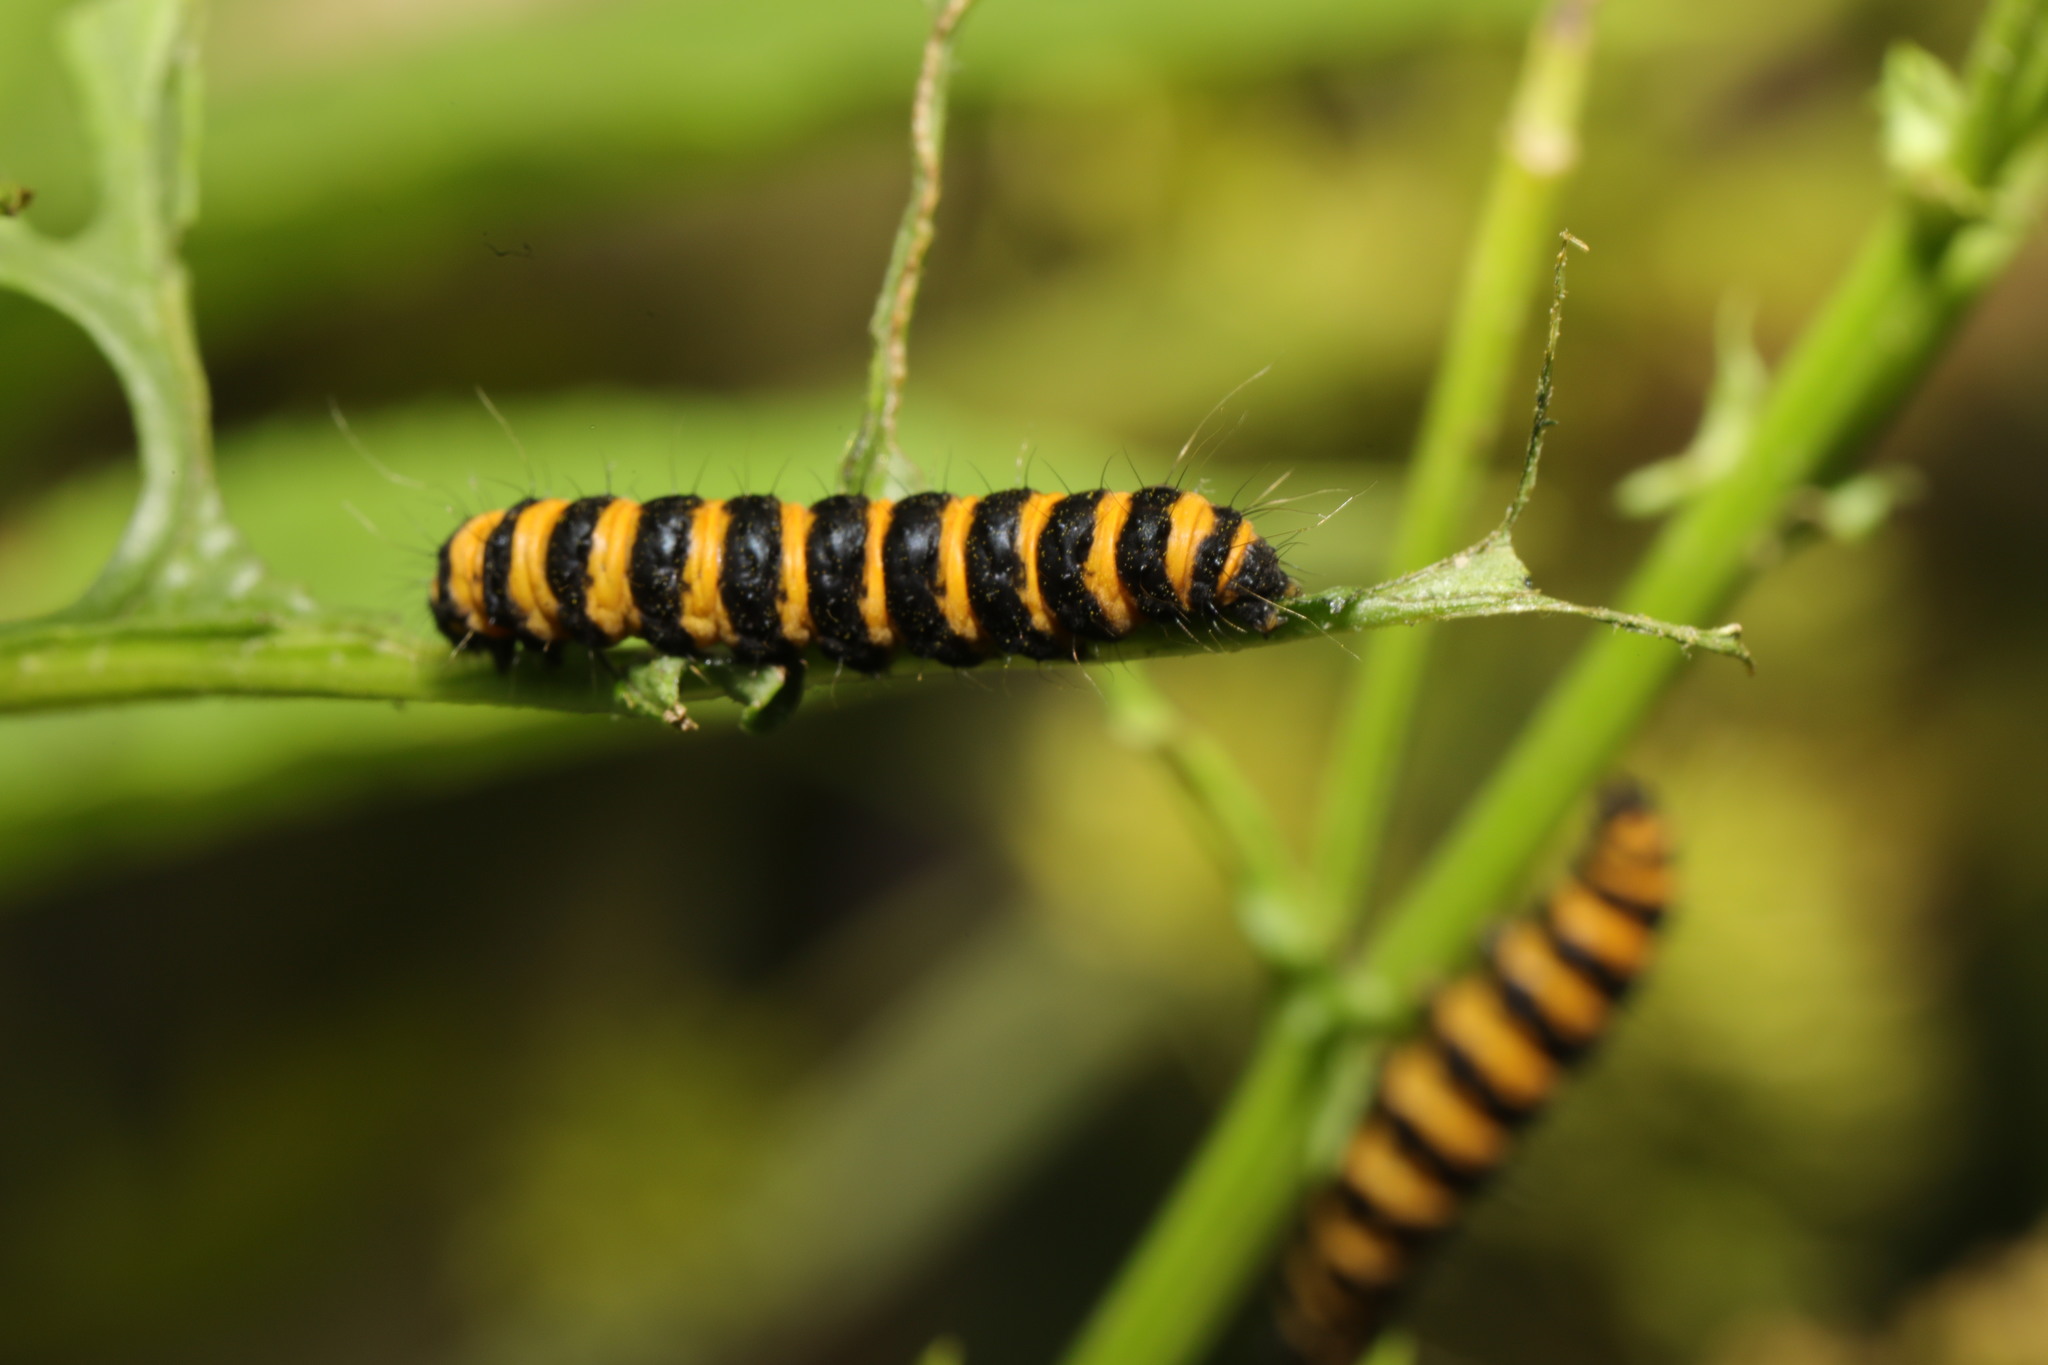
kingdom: Animalia
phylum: Arthropoda
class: Insecta
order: Lepidoptera
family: Erebidae
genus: Tyria
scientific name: Tyria jacobaeae
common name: Cinnabar
